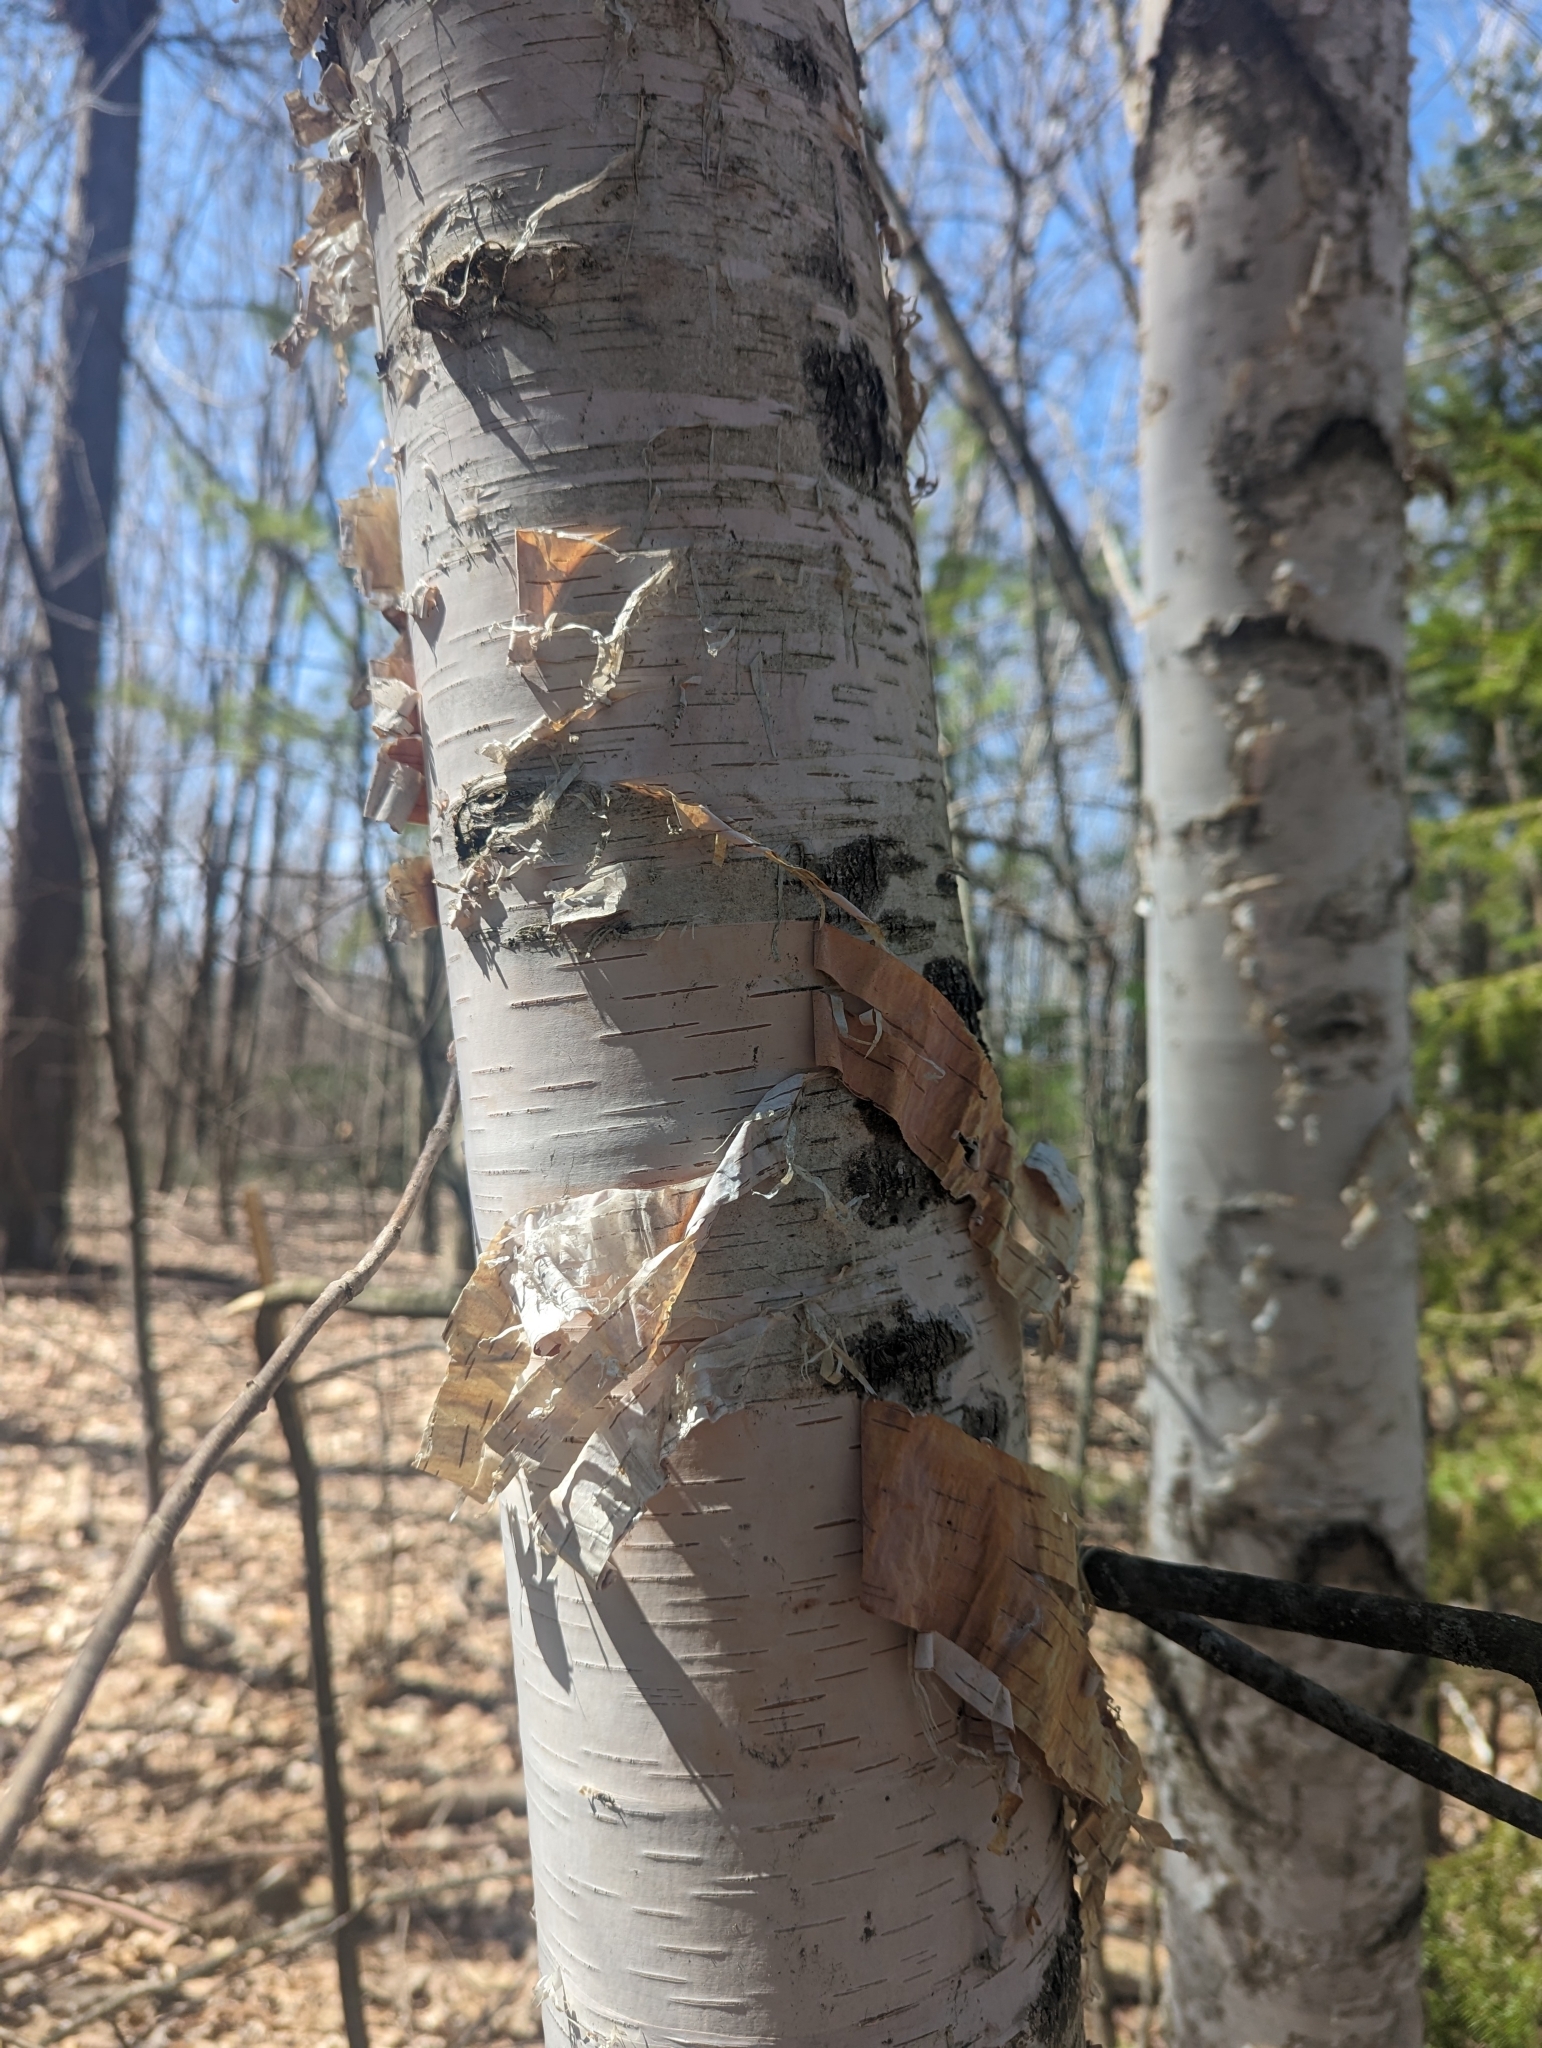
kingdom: Plantae
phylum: Tracheophyta
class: Magnoliopsida
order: Fagales
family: Betulaceae
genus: Betula
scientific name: Betula papyrifera
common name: Paper birch
